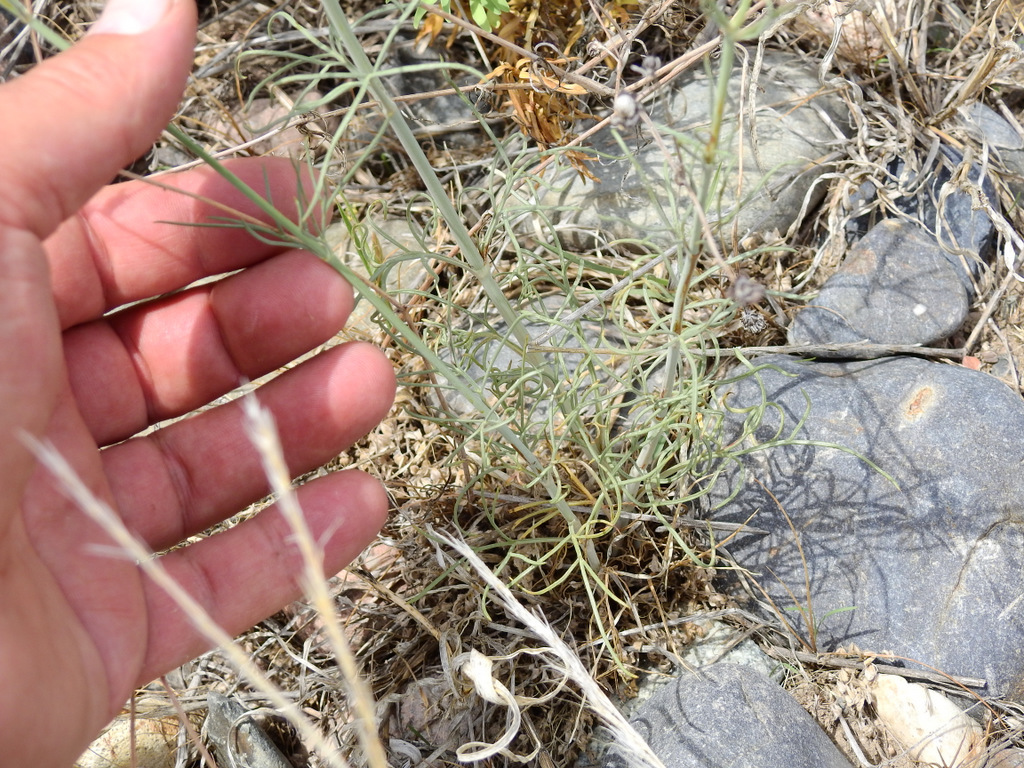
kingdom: Plantae
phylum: Tracheophyta
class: Magnoliopsida
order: Asterales
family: Asteraceae
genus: Thelesperma
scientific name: Thelesperma megapotamicum
